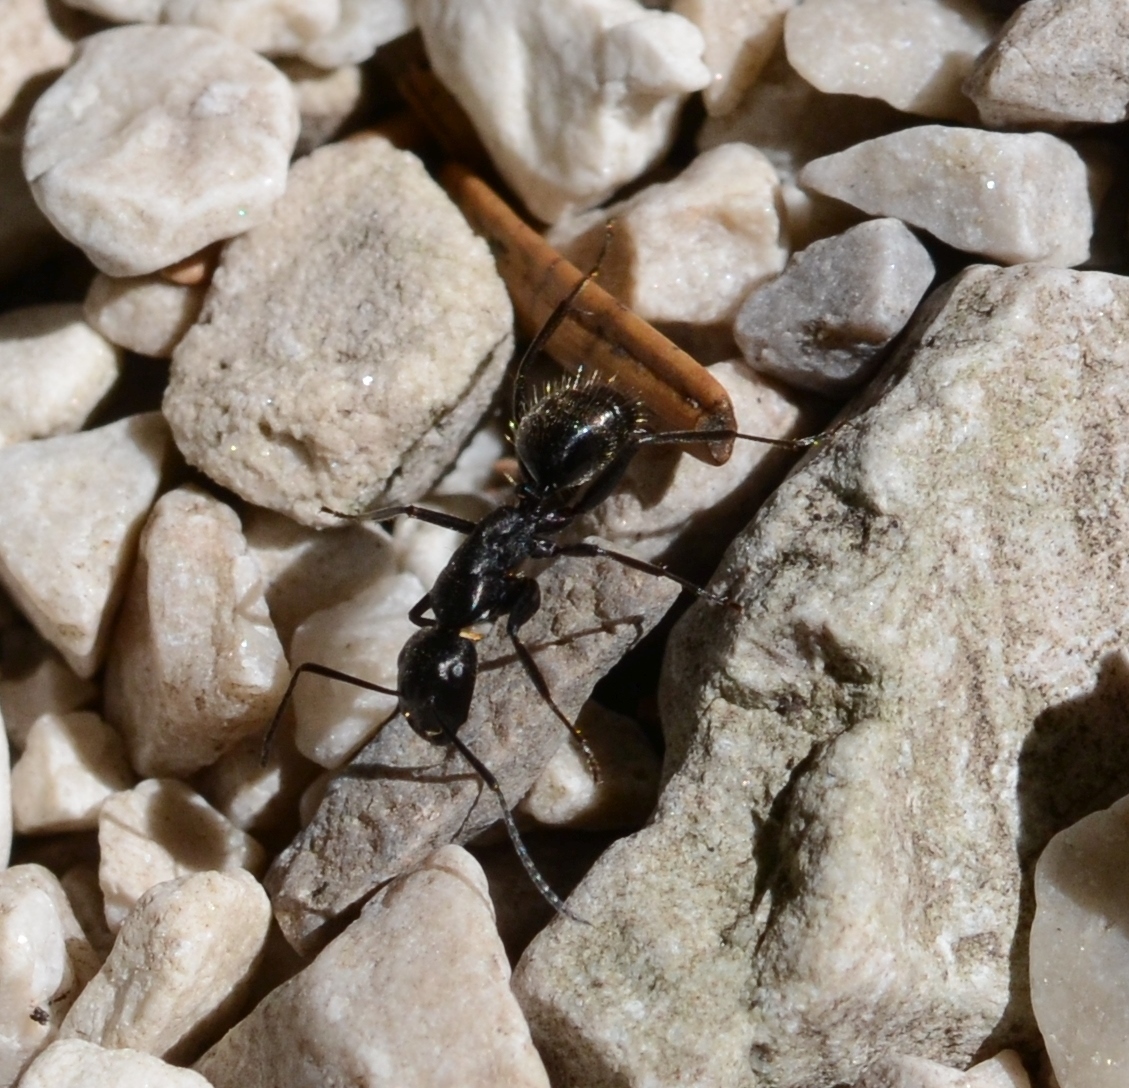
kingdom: Animalia
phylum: Arthropoda
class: Insecta
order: Hymenoptera
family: Formicidae
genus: Camponotus
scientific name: Camponotus vagus
